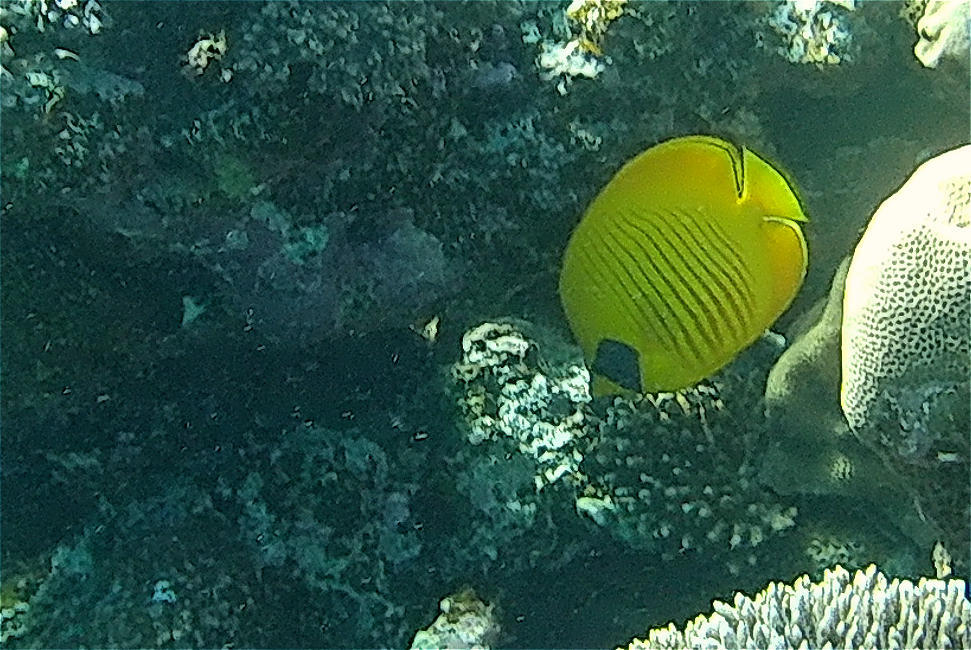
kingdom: Animalia
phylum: Chordata
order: Perciformes
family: Chaetodontidae
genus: Chaetodon
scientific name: Chaetodon semilarvatus
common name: Golden butterflyfish
